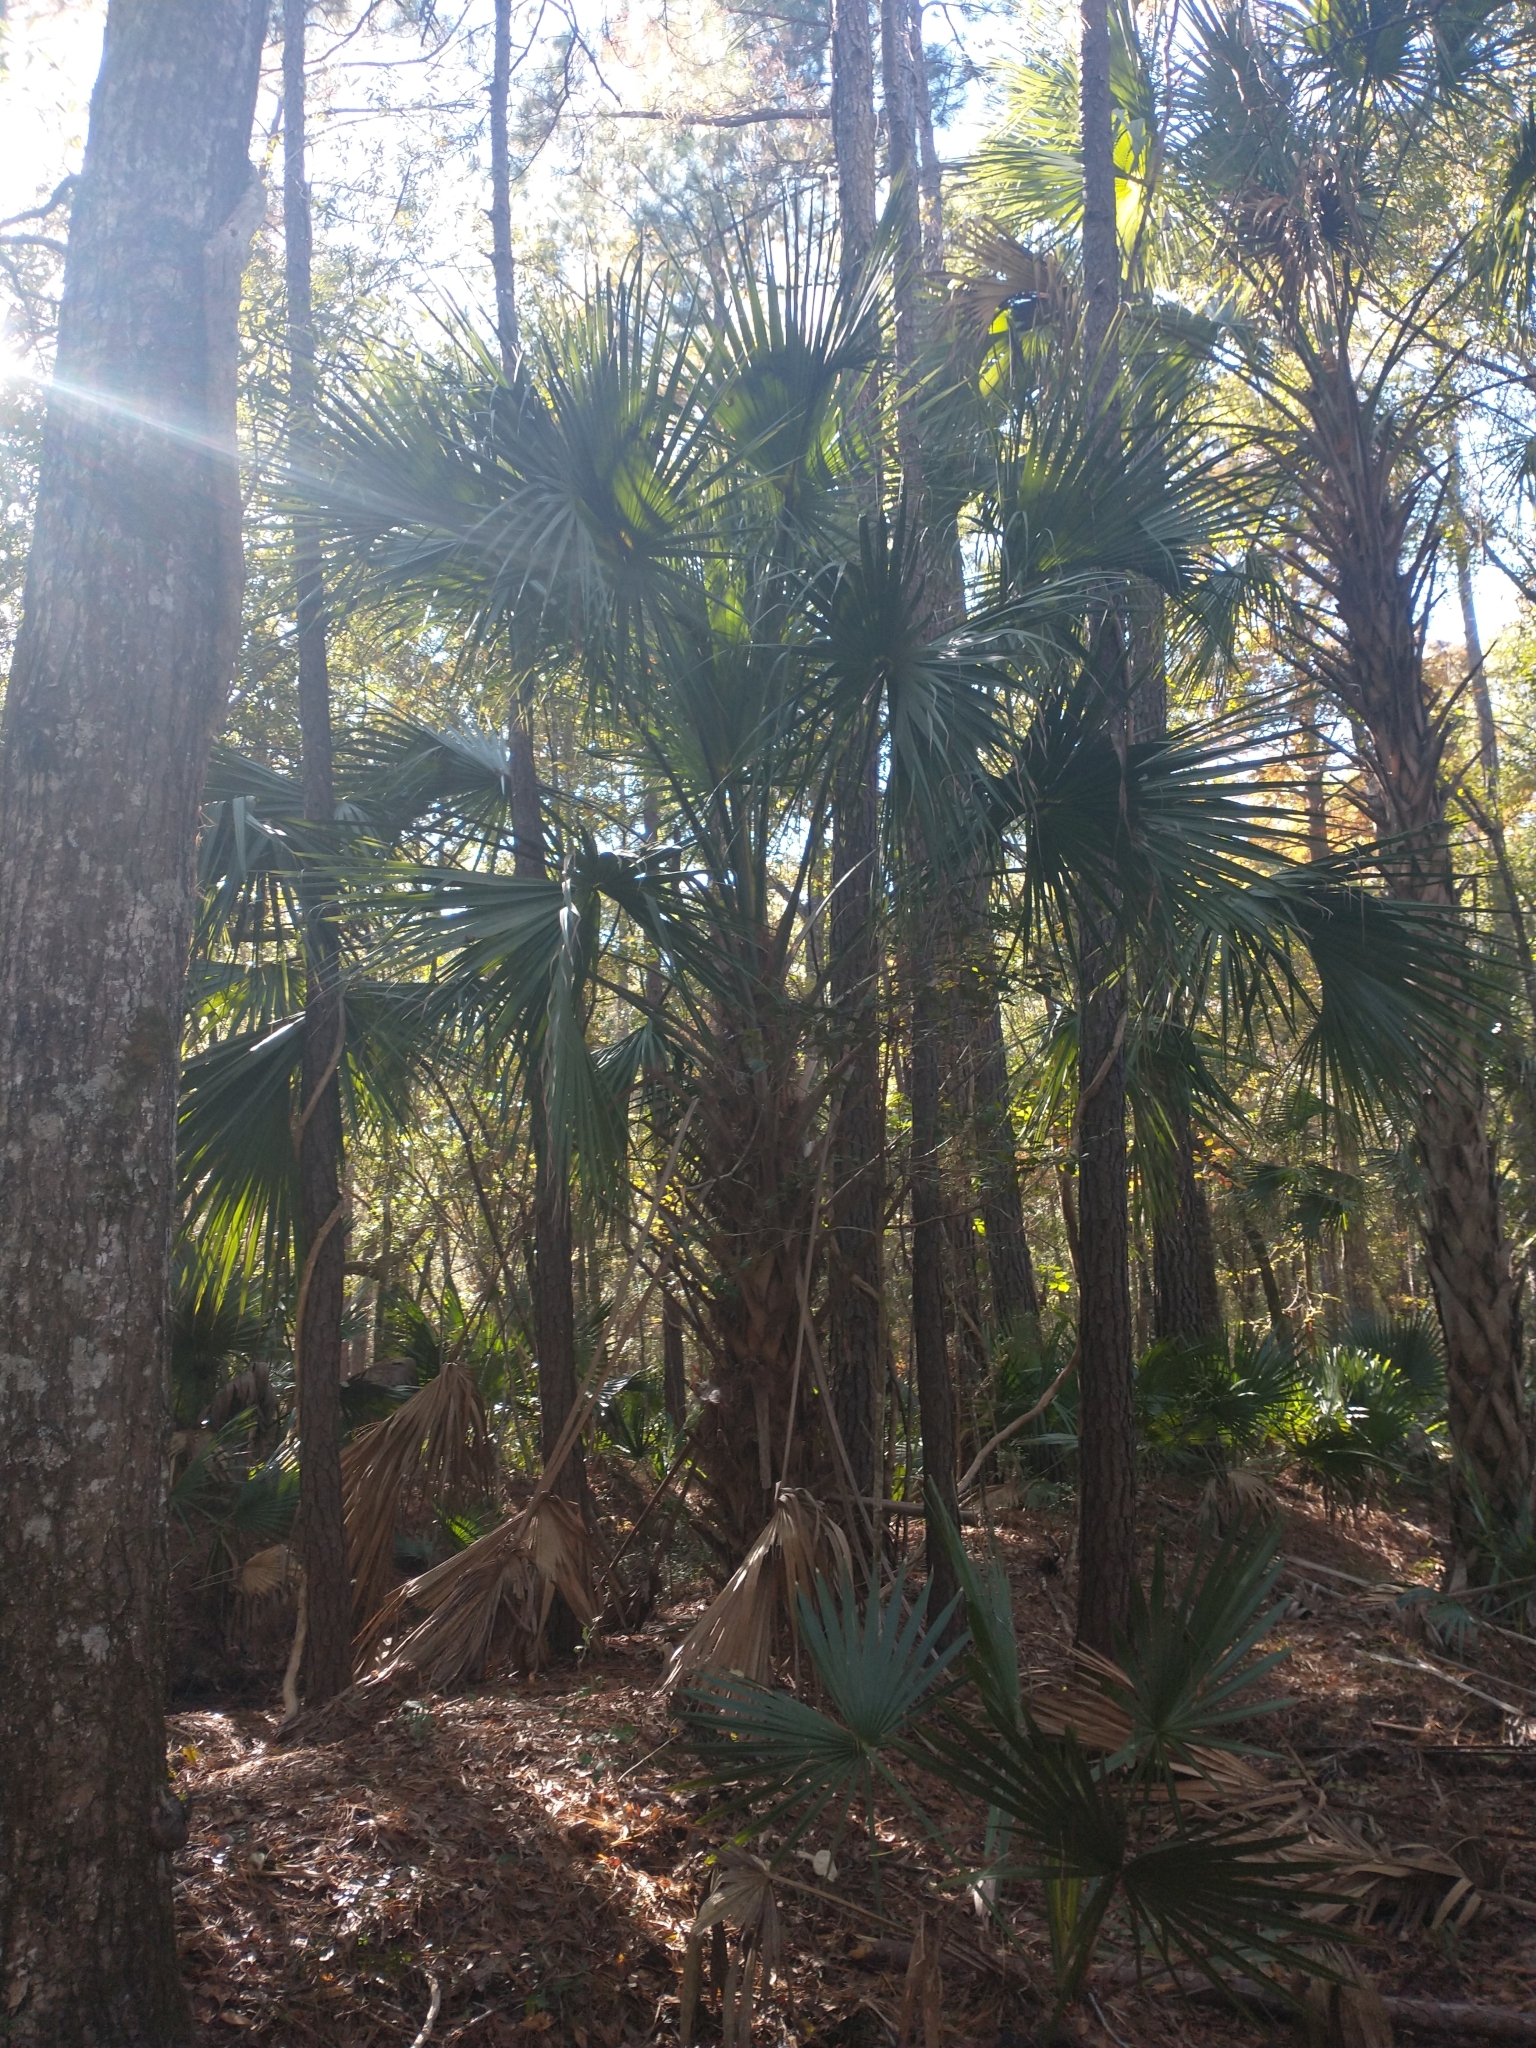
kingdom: Plantae
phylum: Tracheophyta
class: Liliopsida
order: Arecales
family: Arecaceae
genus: Sabal
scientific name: Sabal palmetto
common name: Blue palmetto
